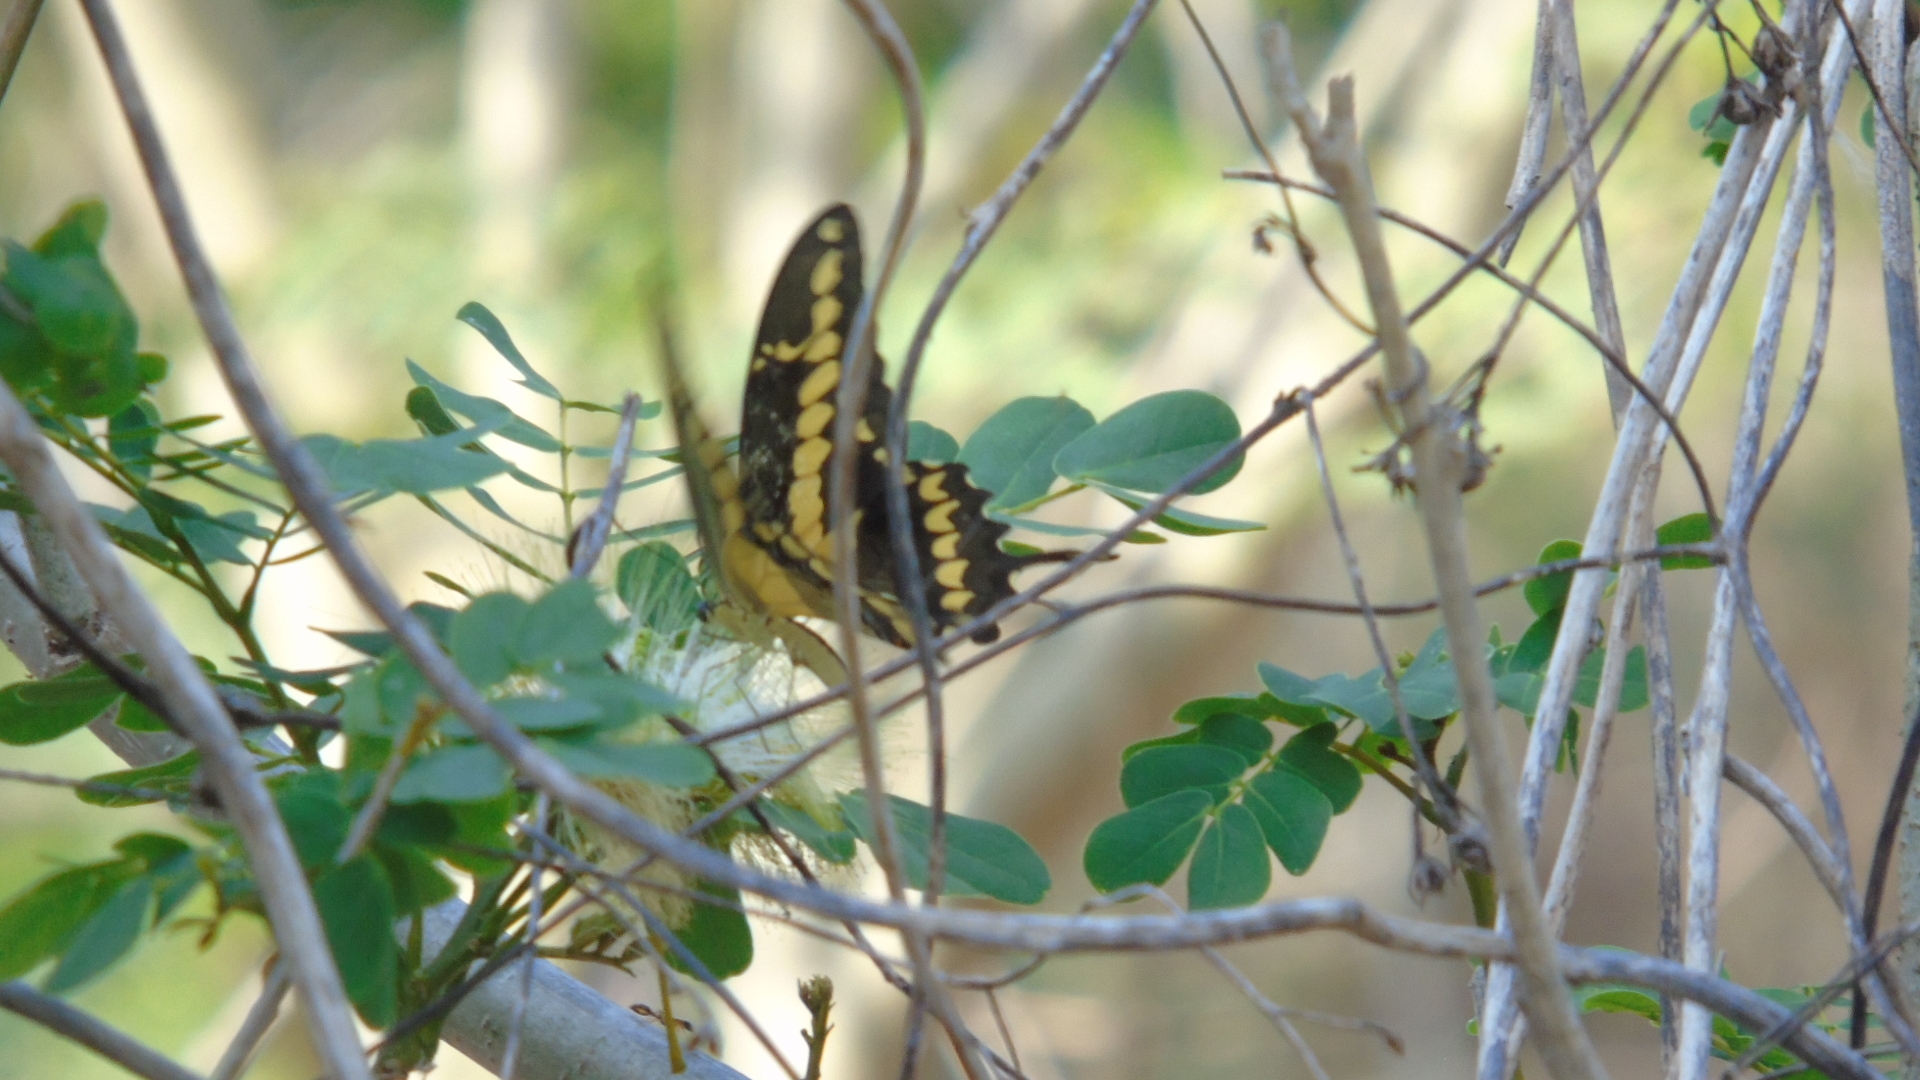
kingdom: Animalia
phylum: Arthropoda
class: Insecta
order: Lepidoptera
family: Papilionidae
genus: Papilio
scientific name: Papilio rumiko
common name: Western giant swallowtail
